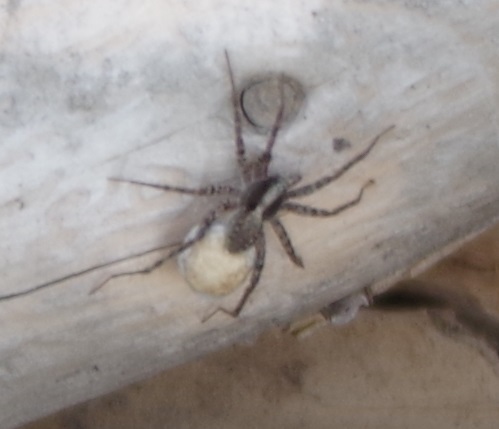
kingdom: Animalia
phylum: Arthropoda
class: Arachnida
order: Araneae
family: Lycosidae
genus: Pardosa
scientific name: Pardosa
